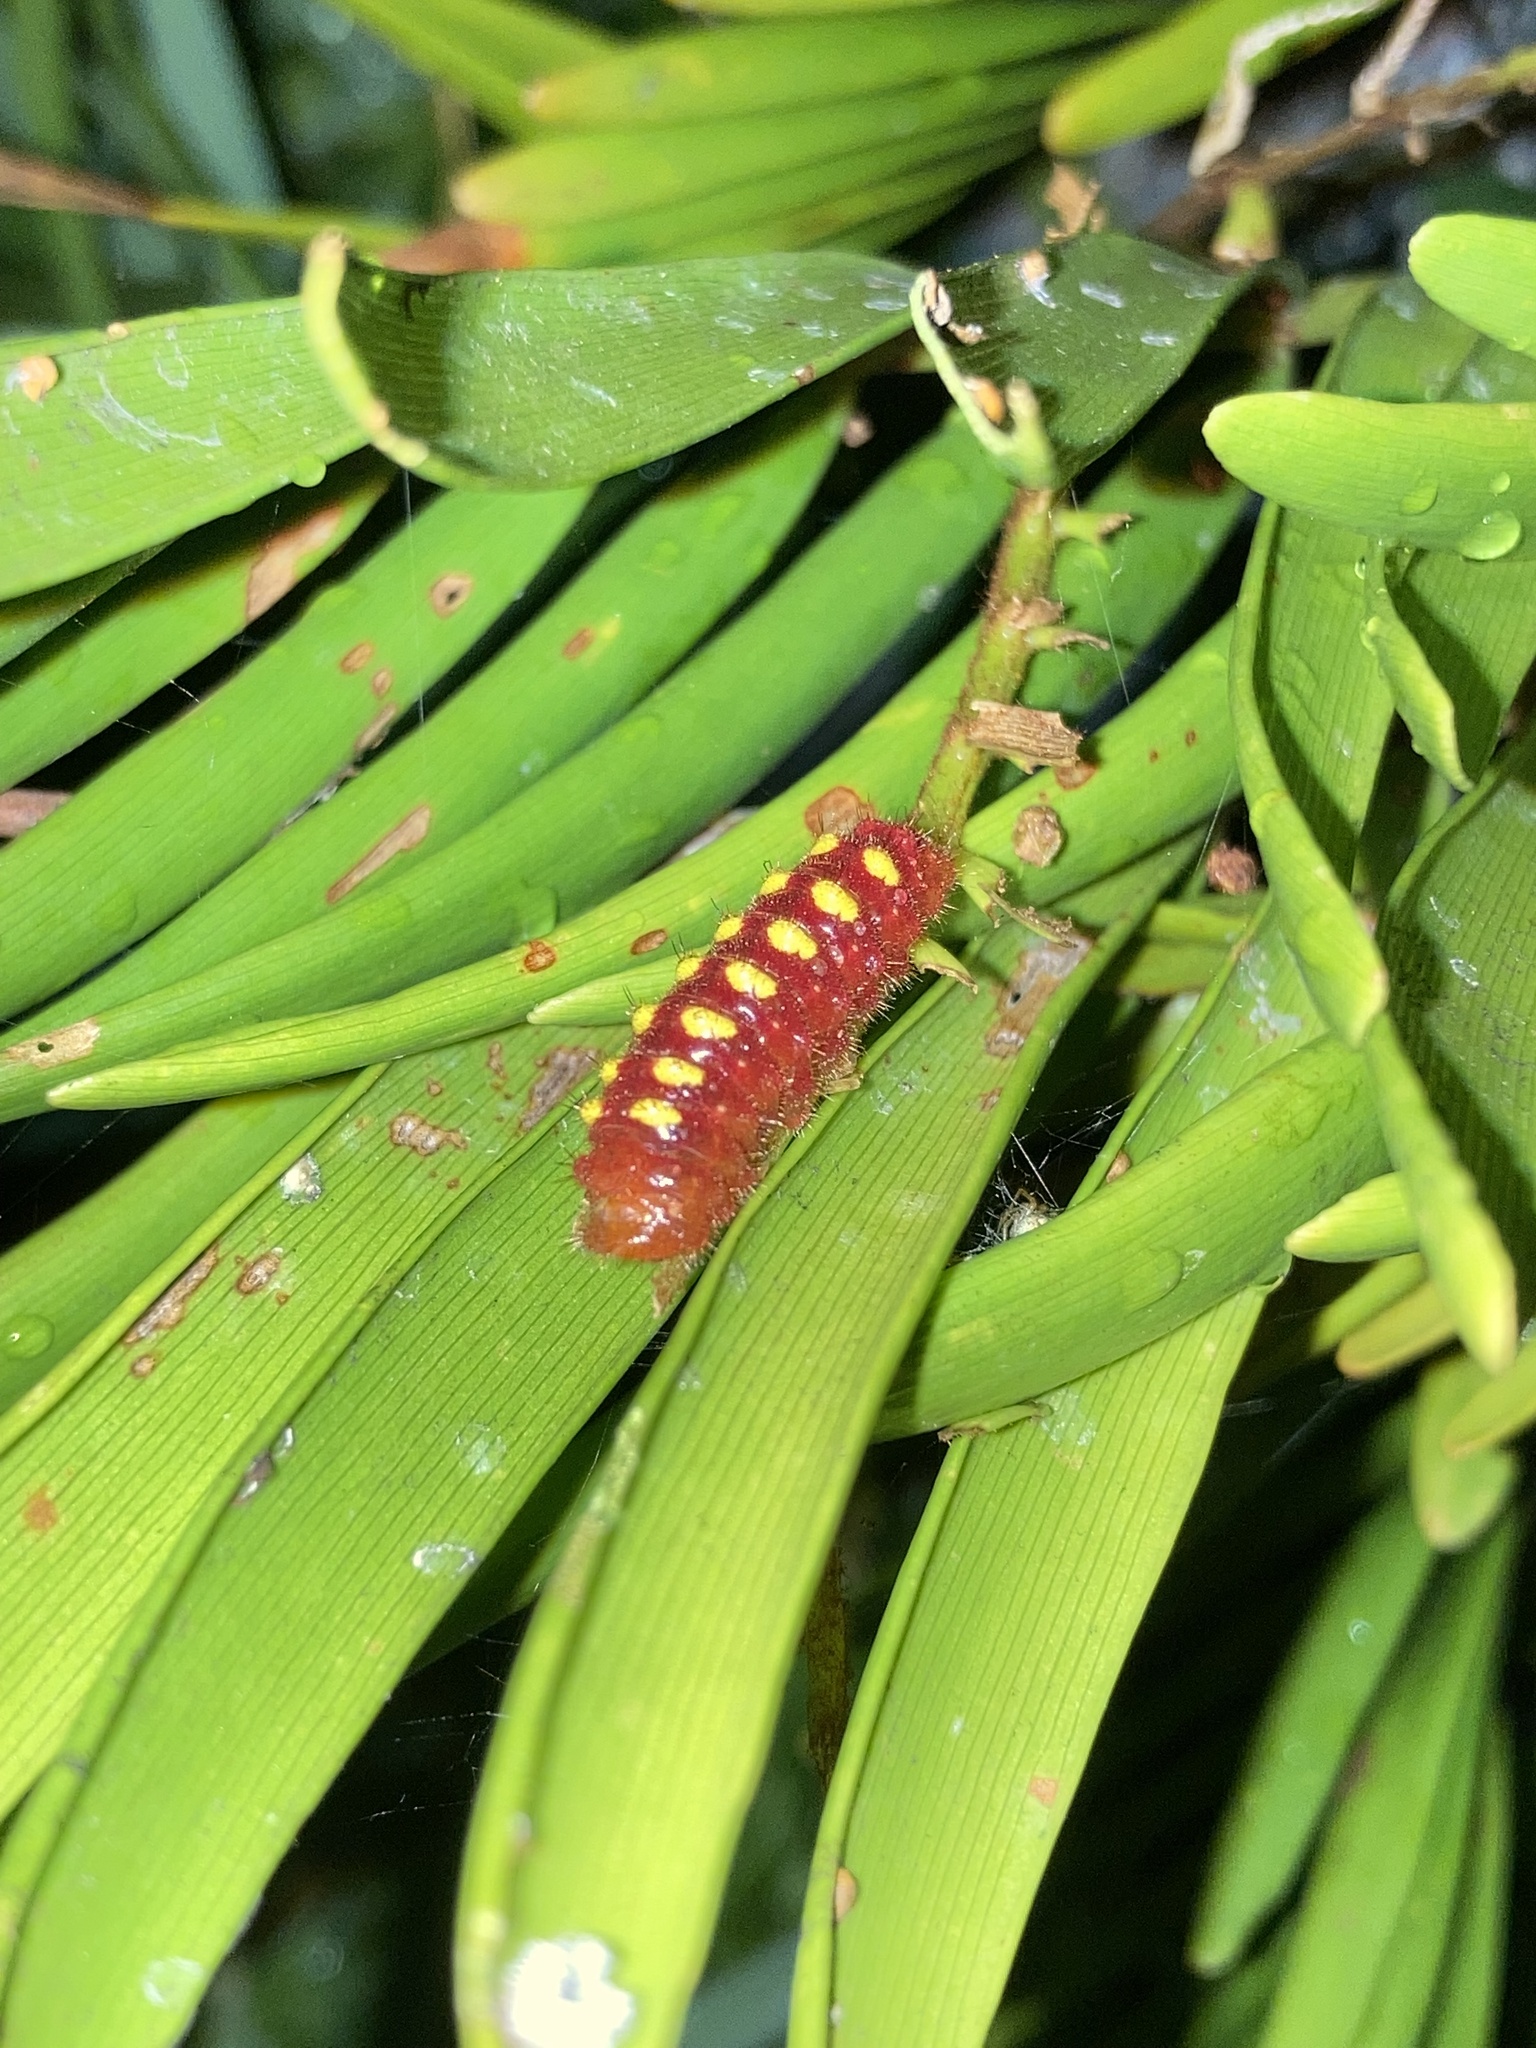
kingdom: Animalia
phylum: Arthropoda
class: Insecta
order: Lepidoptera
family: Lycaenidae
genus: Eumaeus
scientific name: Eumaeus atala
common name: Atala
